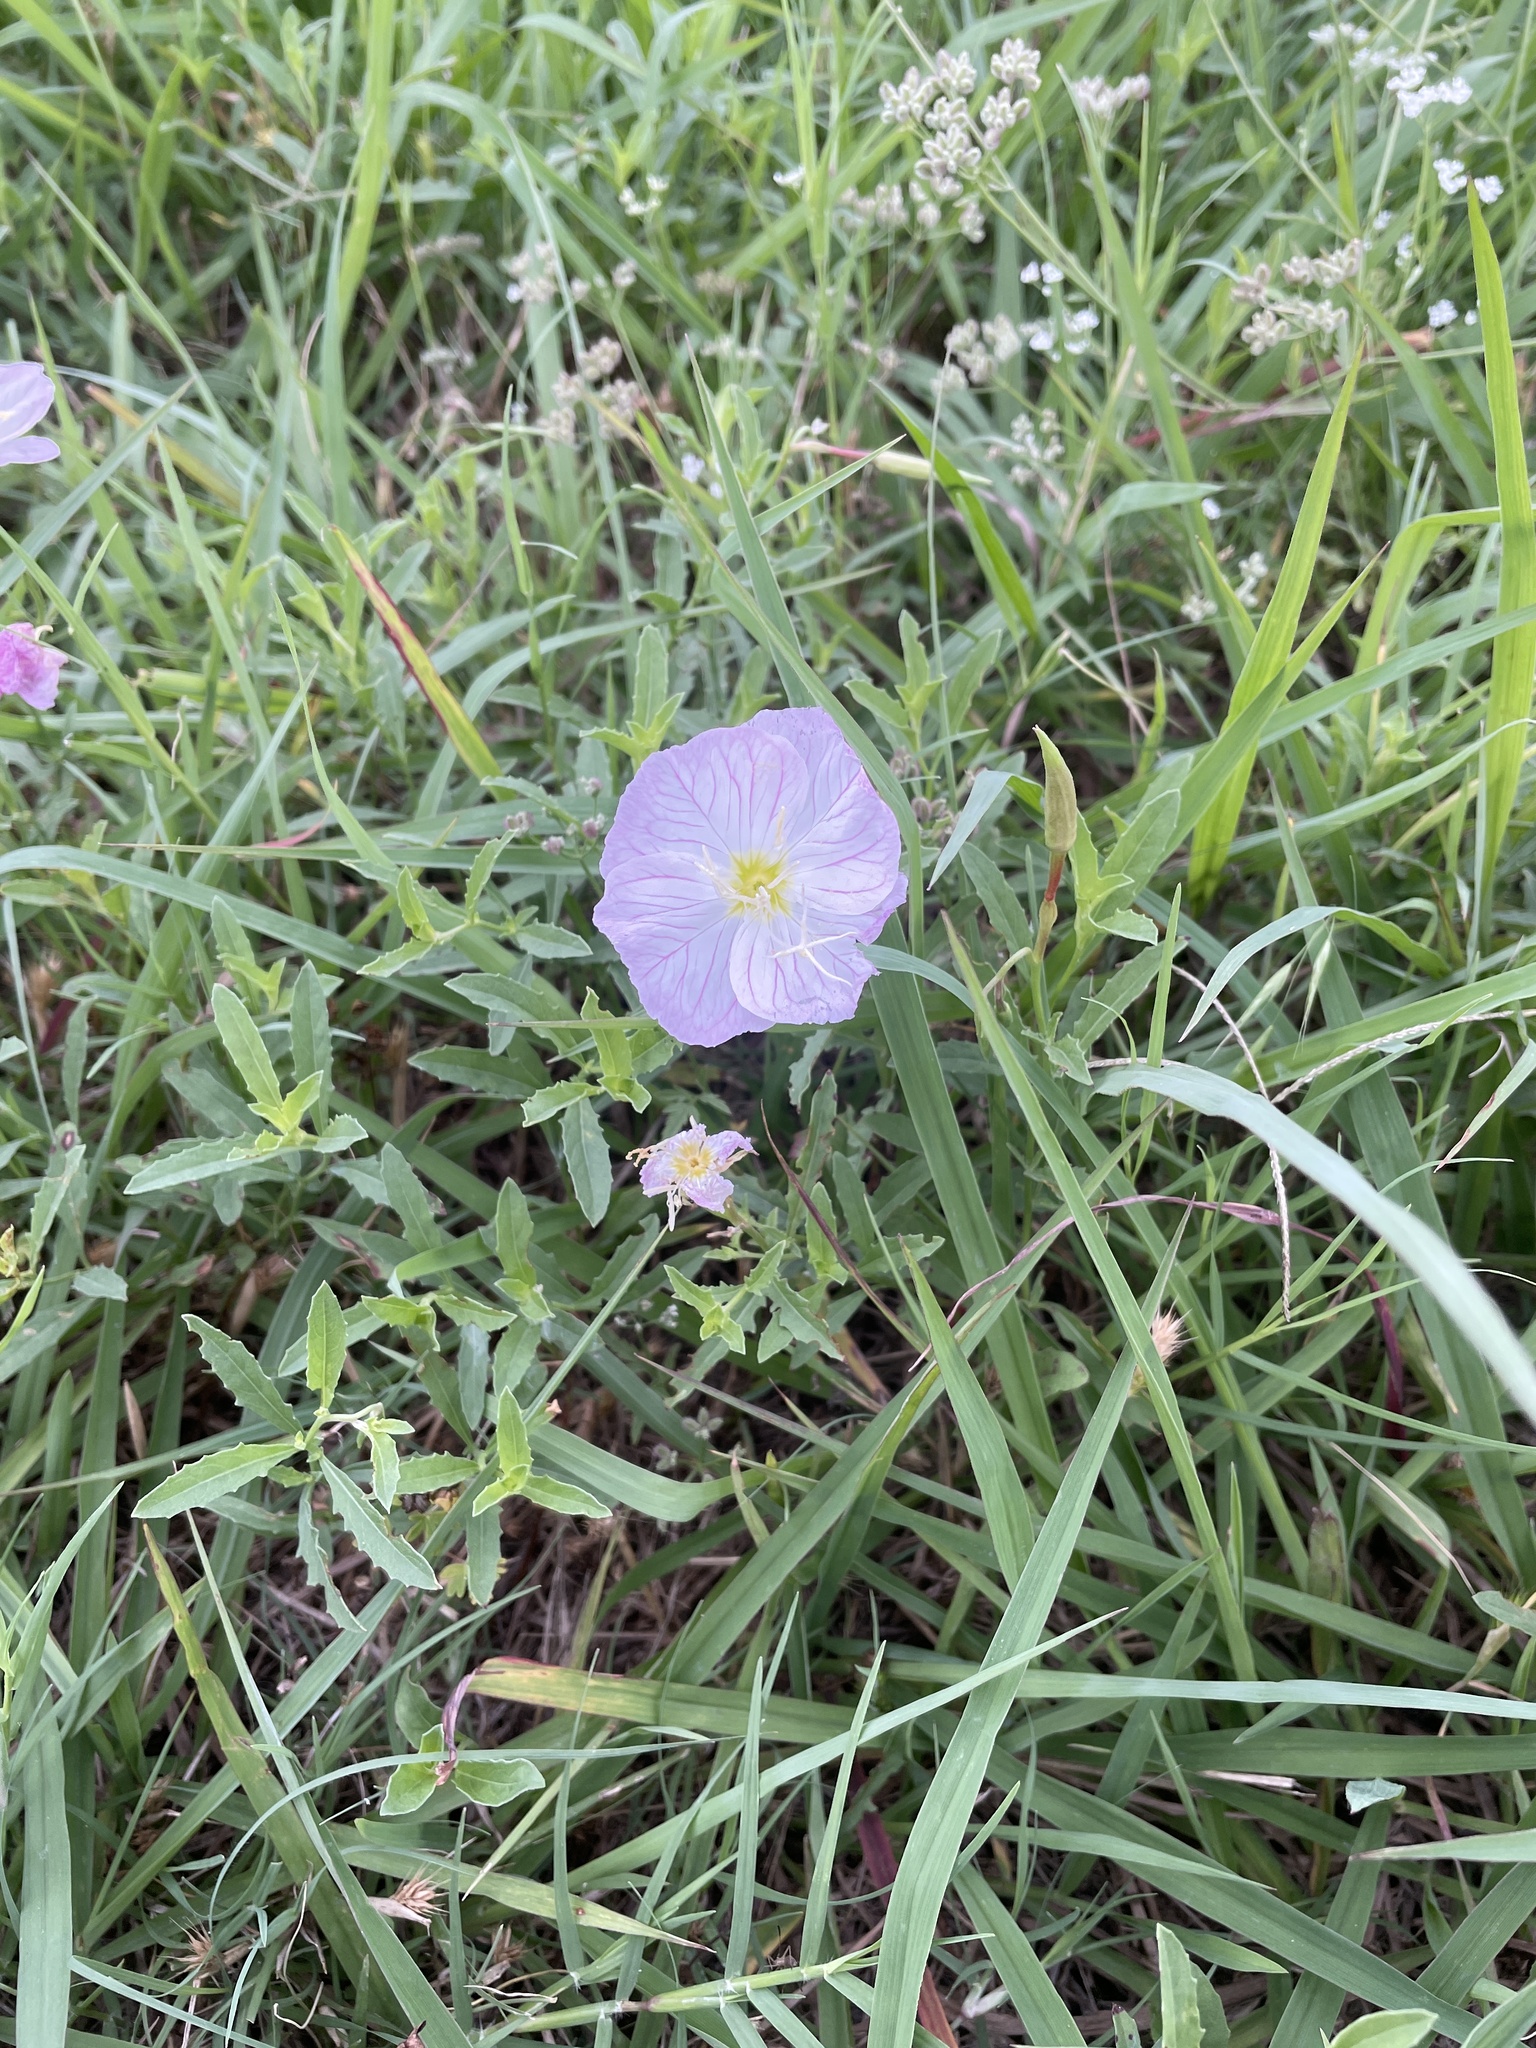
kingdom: Plantae
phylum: Tracheophyta
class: Magnoliopsida
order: Myrtales
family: Onagraceae
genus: Oenothera
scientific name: Oenothera speciosa
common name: White evening-primrose
